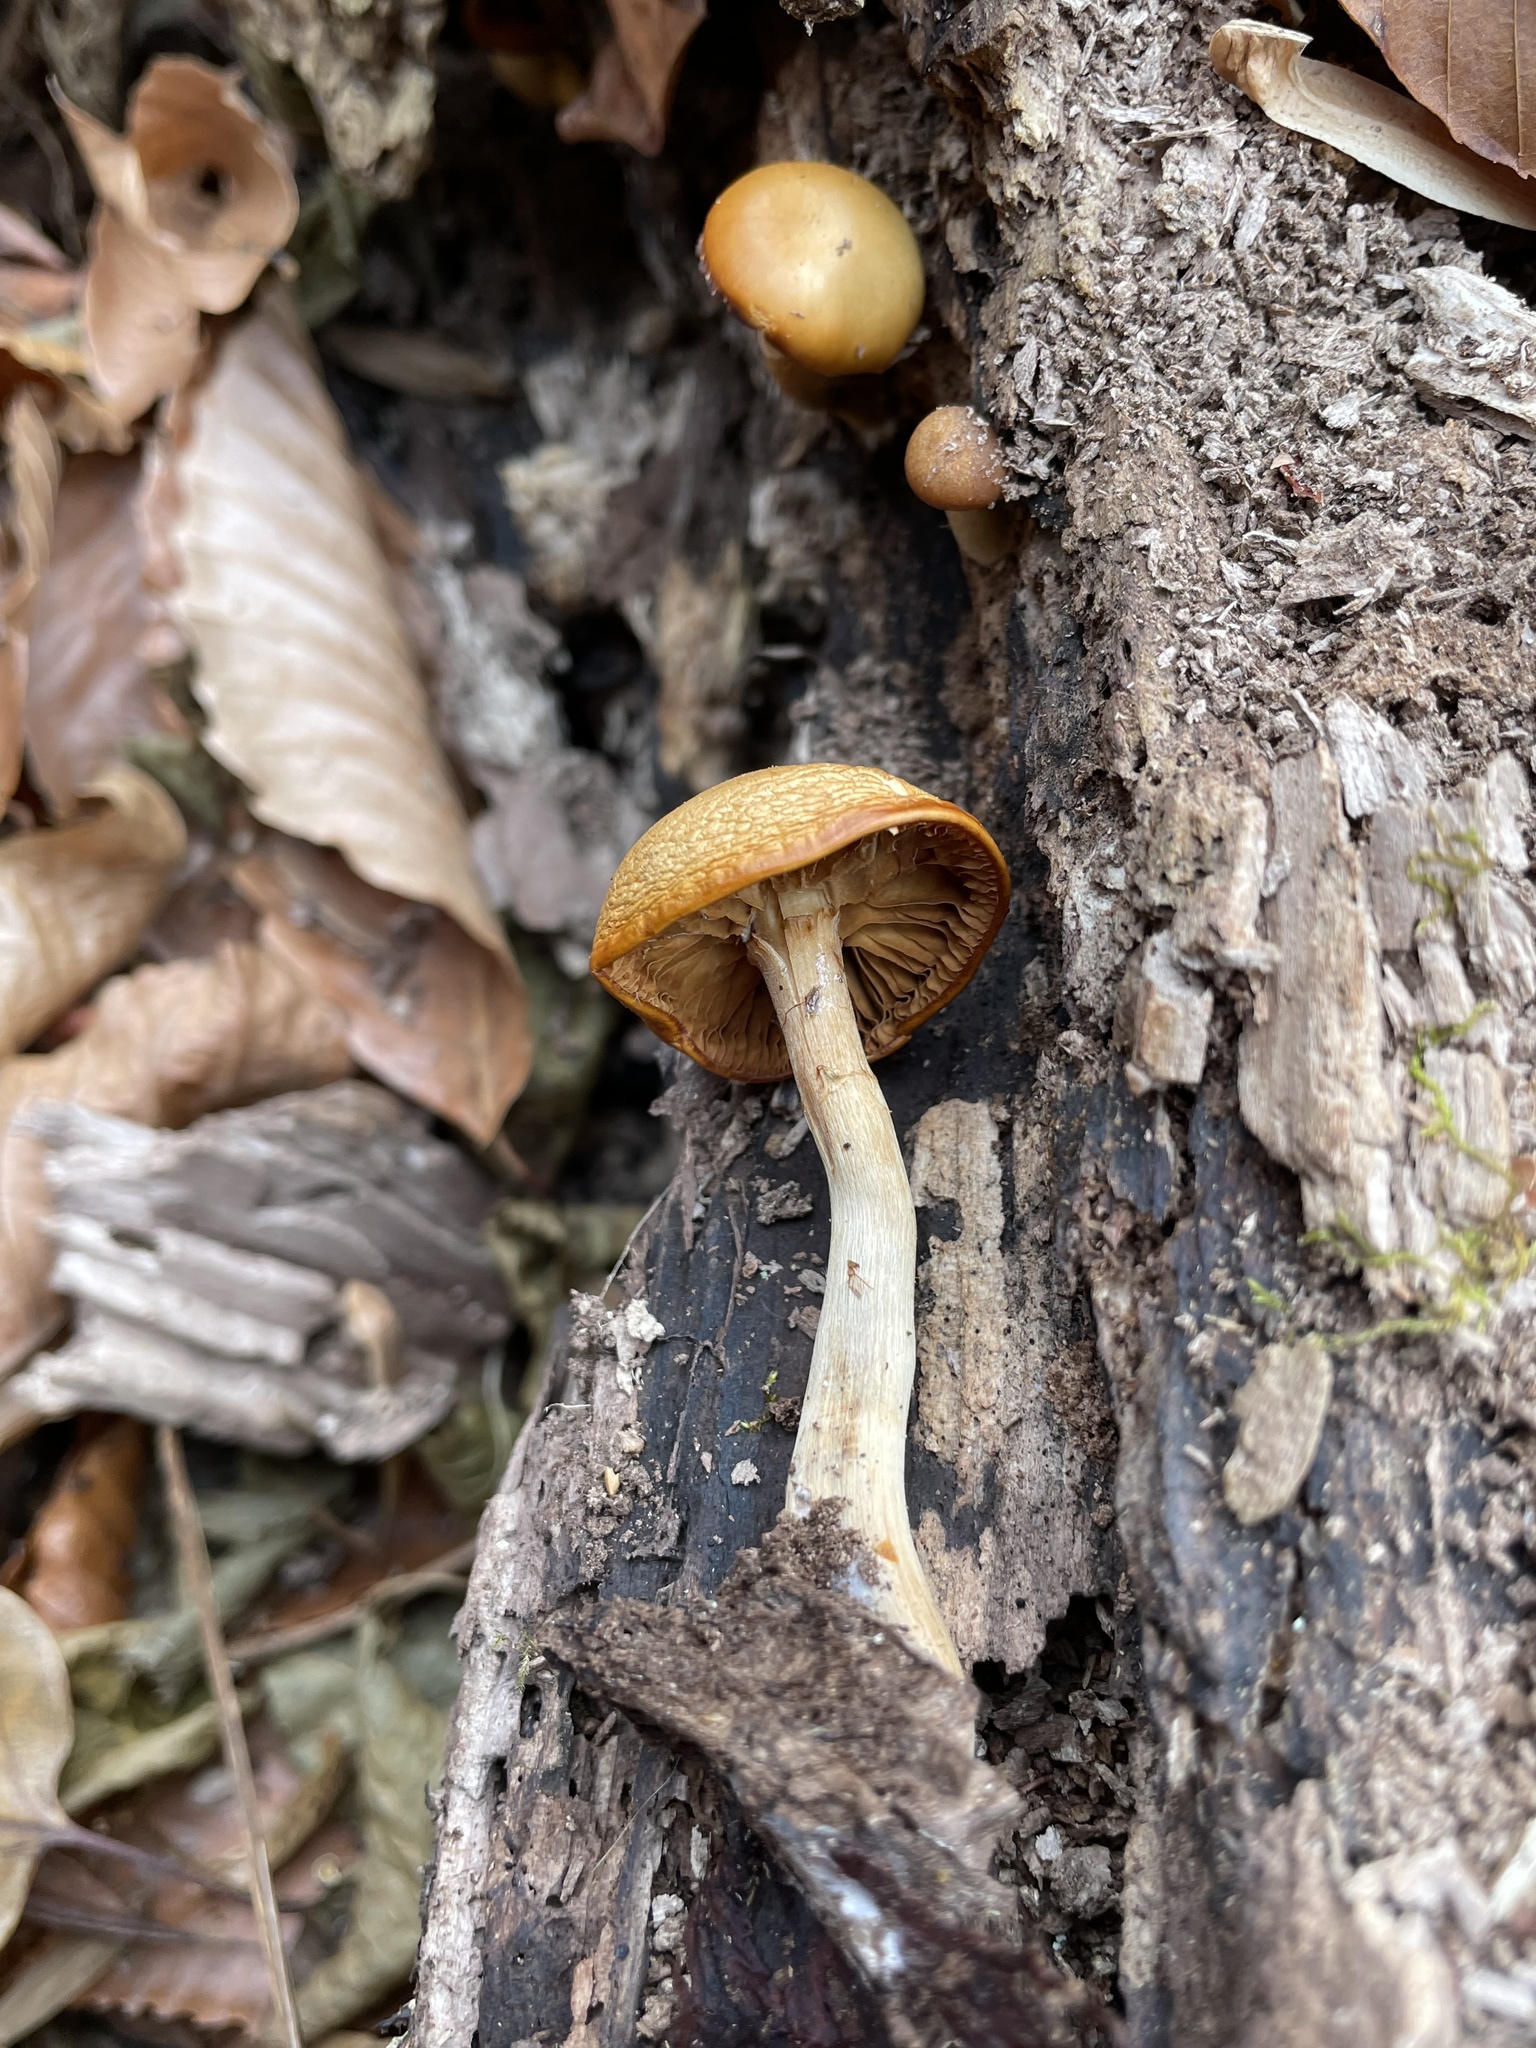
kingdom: Fungi
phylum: Basidiomycota
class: Agaricomycetes
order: Agaricales
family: Hymenogastraceae
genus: Galerina
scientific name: Galerina marginata
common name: Funeral bell
